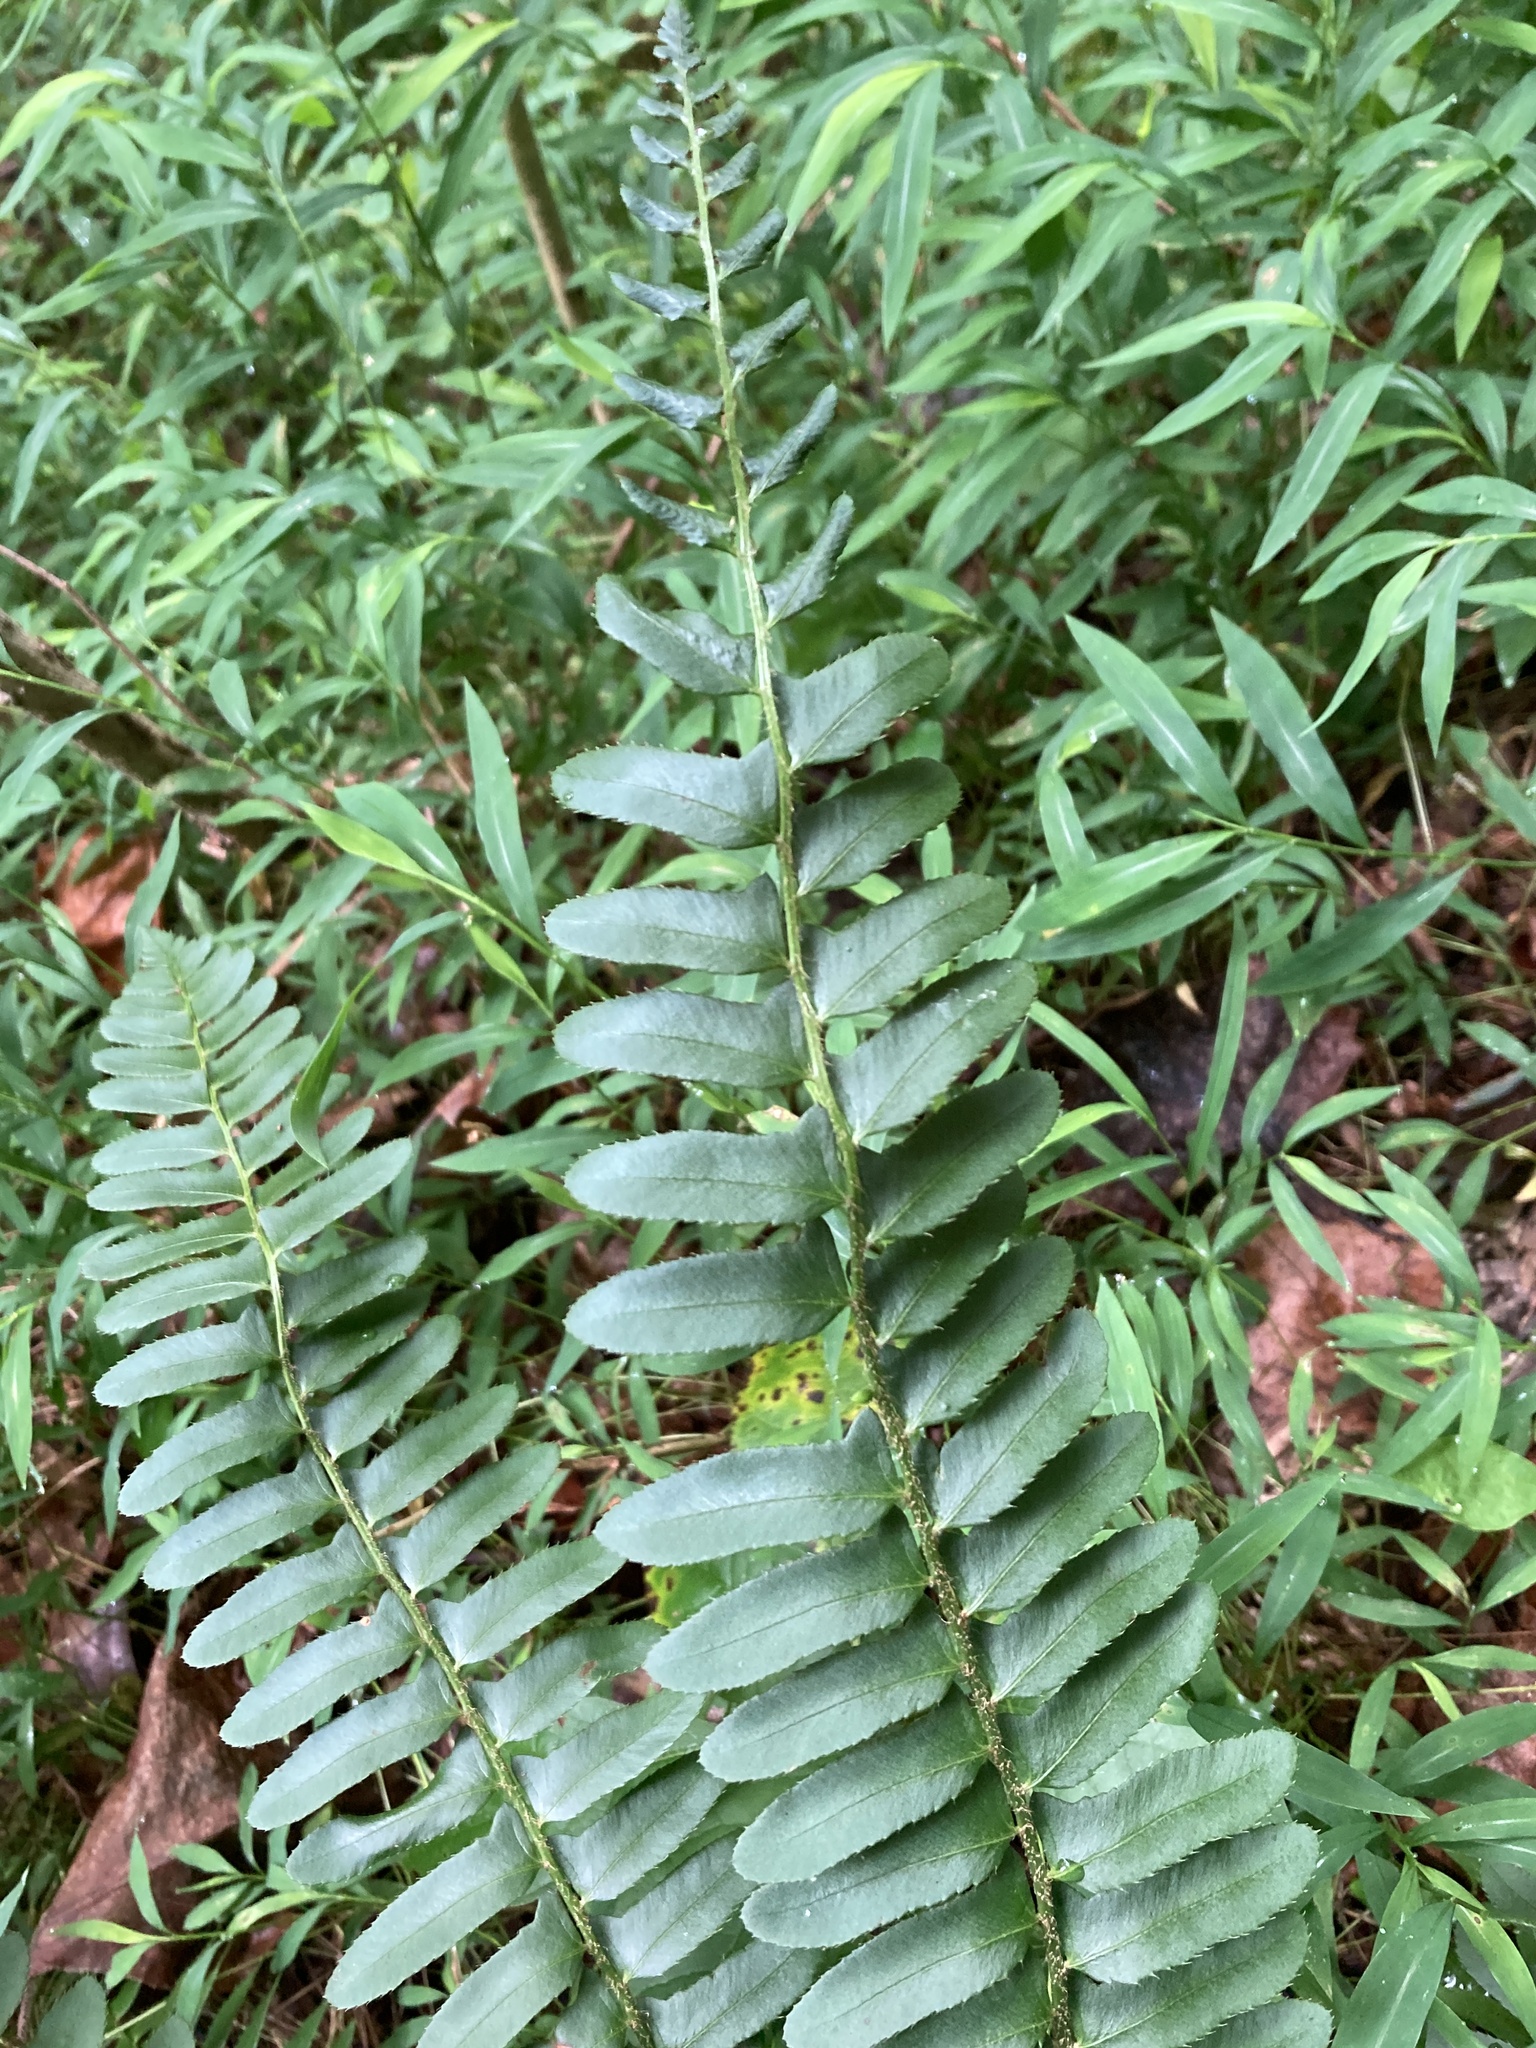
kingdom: Plantae
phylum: Tracheophyta
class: Polypodiopsida
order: Polypodiales
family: Dryopteridaceae
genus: Polystichum
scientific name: Polystichum acrostichoides
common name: Christmas fern
